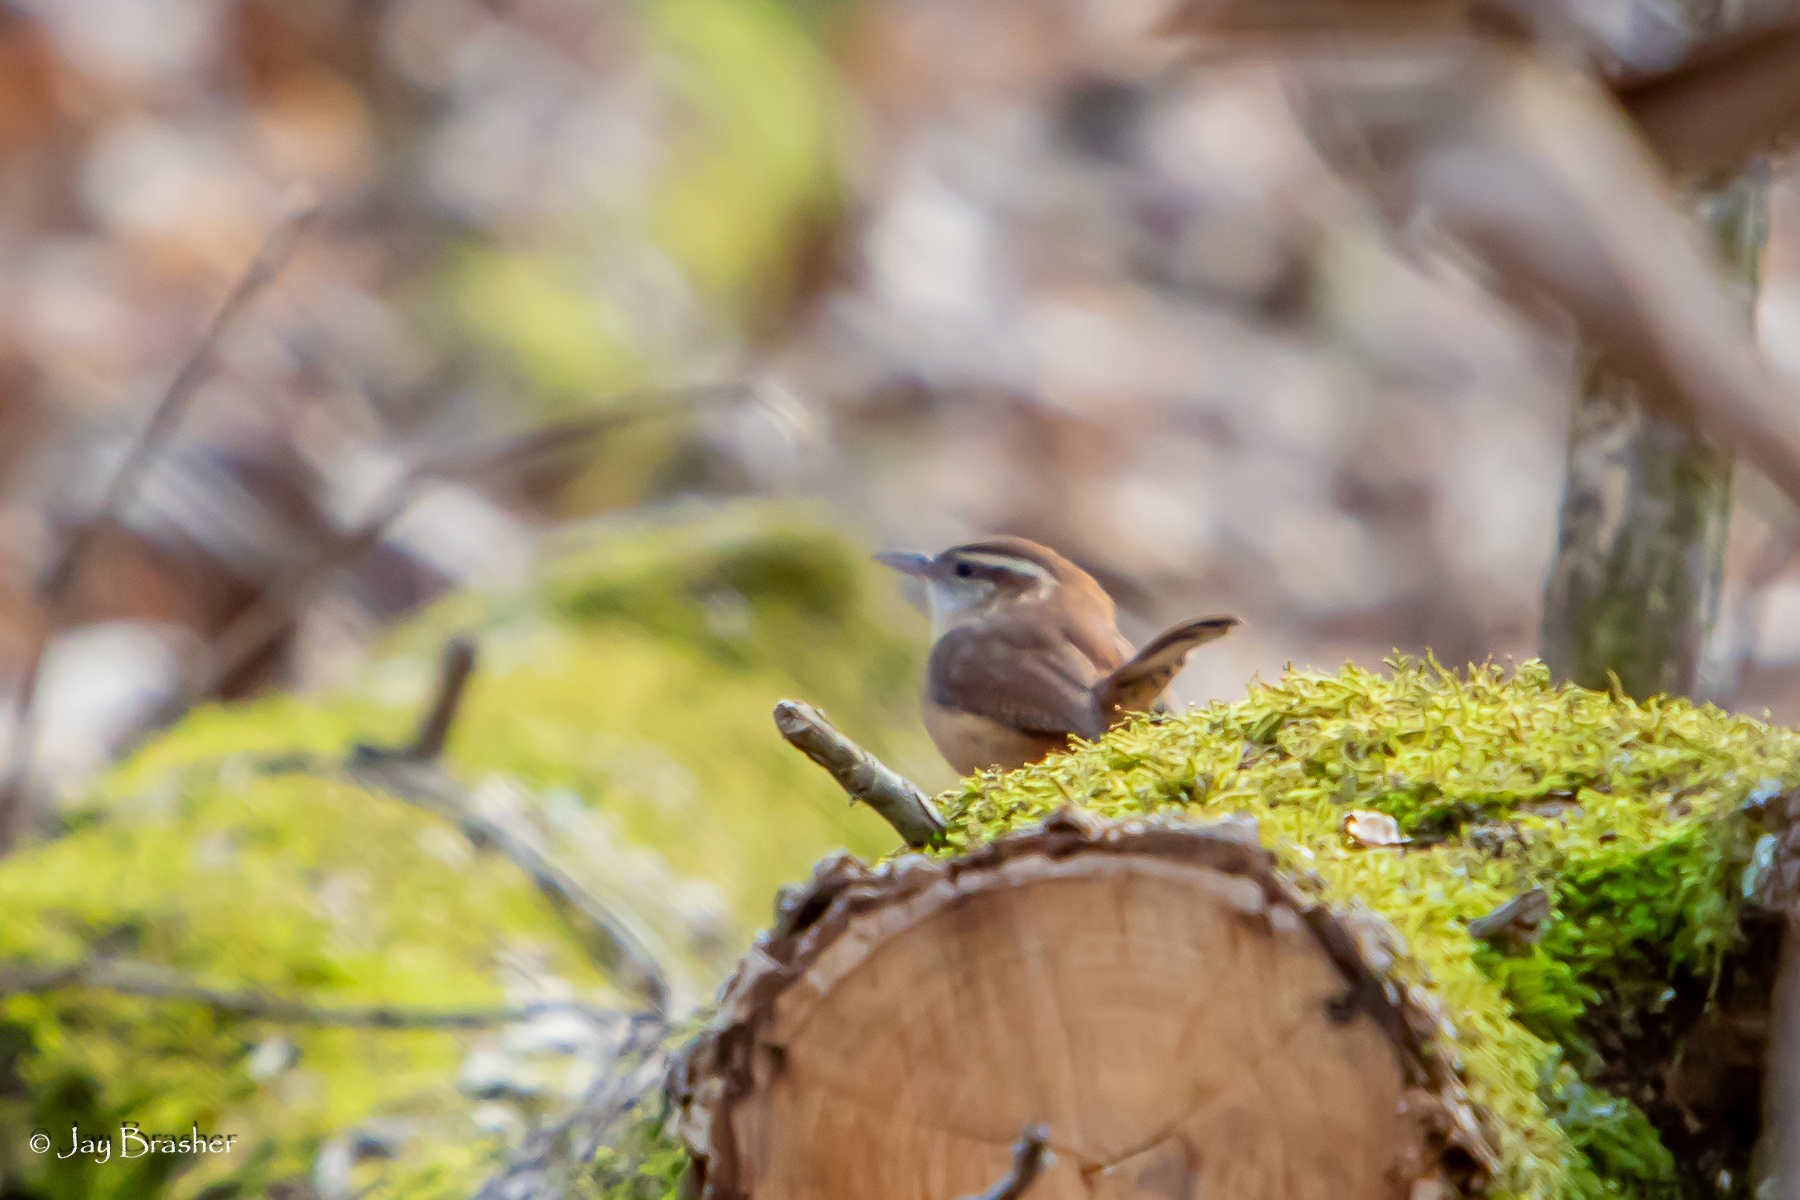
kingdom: Animalia
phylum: Chordata
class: Aves
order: Passeriformes
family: Troglodytidae
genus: Thryothorus
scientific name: Thryothorus ludovicianus
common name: Carolina wren
